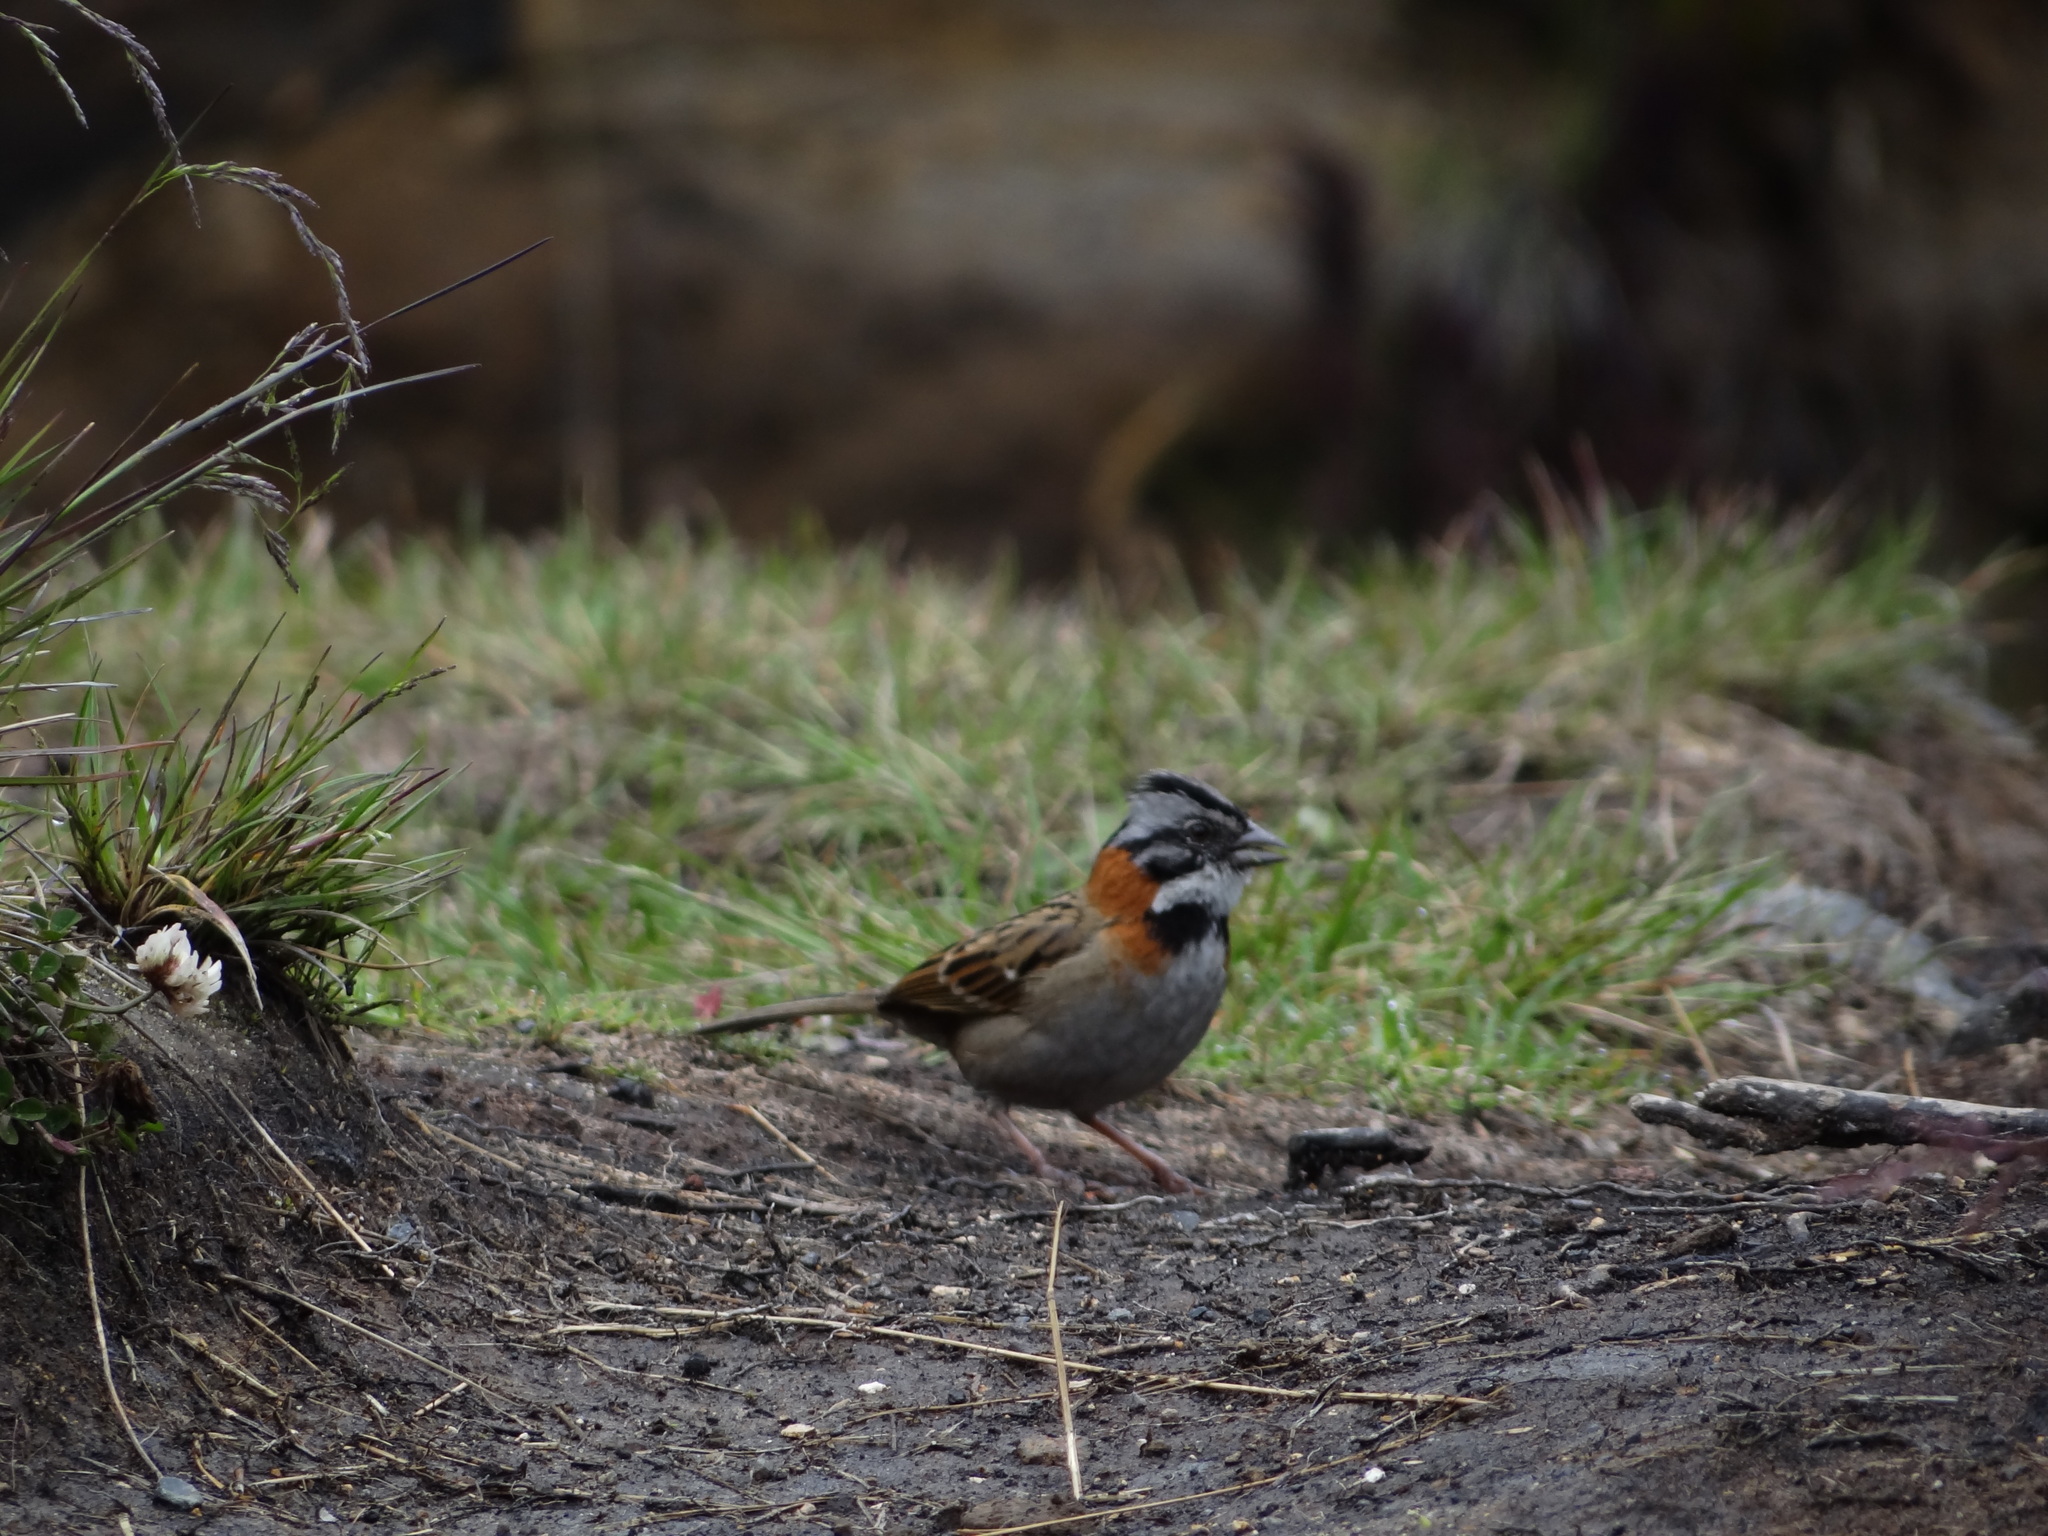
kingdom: Animalia
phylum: Chordata
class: Aves
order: Passeriformes
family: Passerellidae
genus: Zonotrichia
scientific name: Zonotrichia capensis
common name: Rufous-collared sparrow
